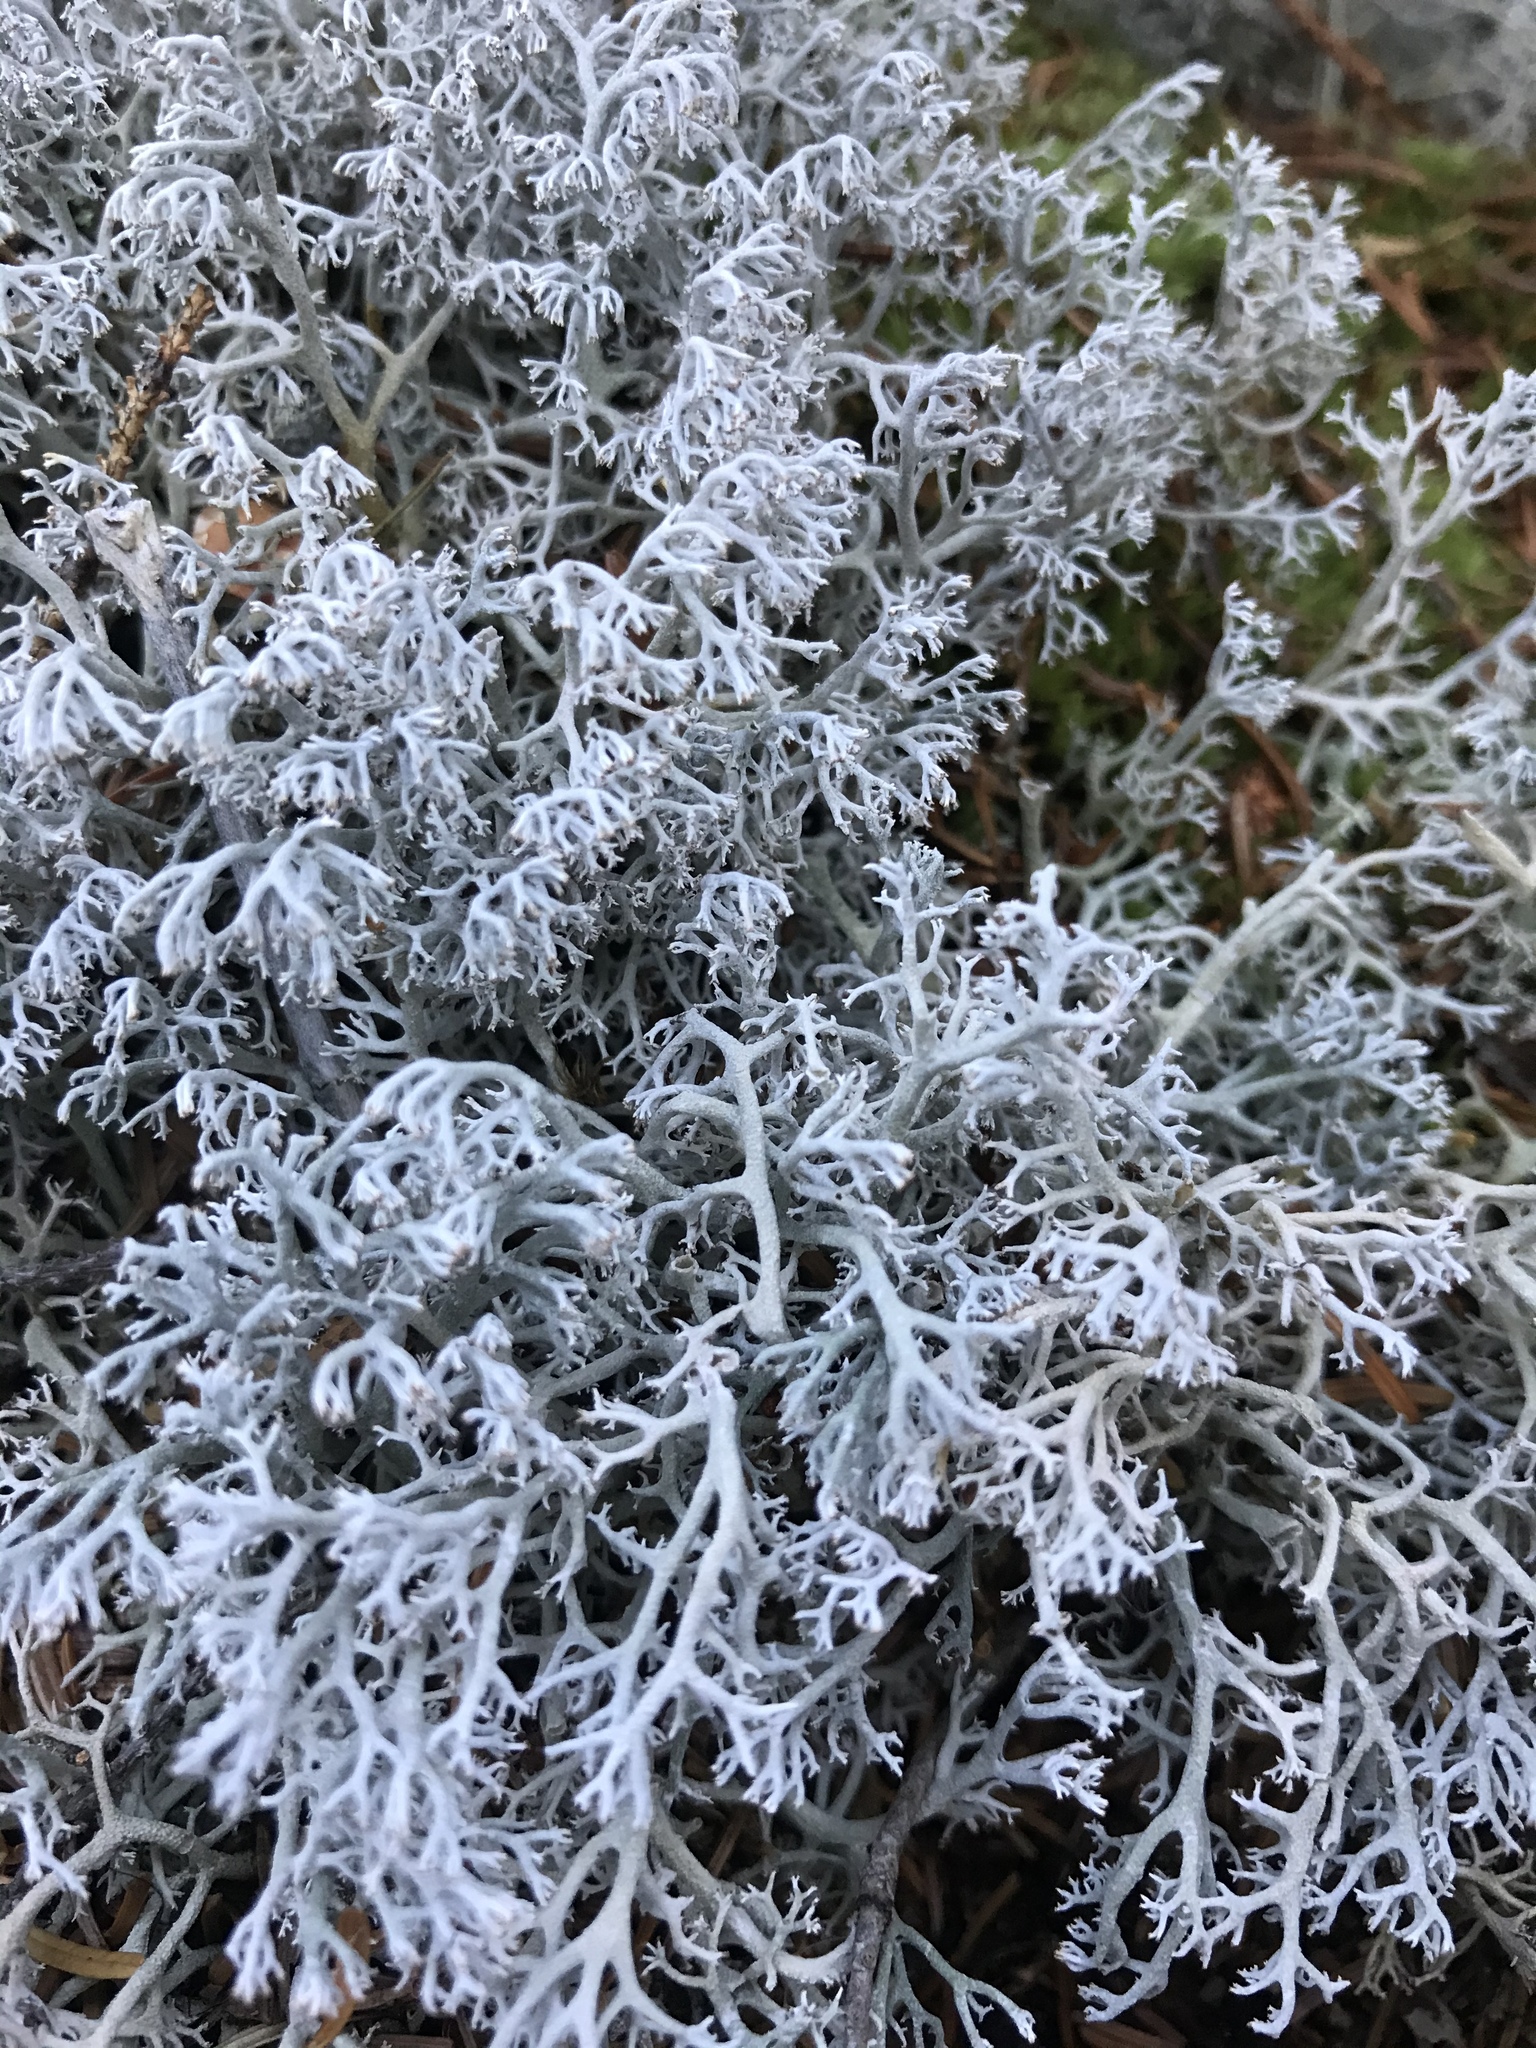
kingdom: Fungi
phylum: Ascomycota
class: Lecanoromycetes
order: Lecanorales
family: Cladoniaceae
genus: Cladonia
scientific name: Cladonia rangiferina
